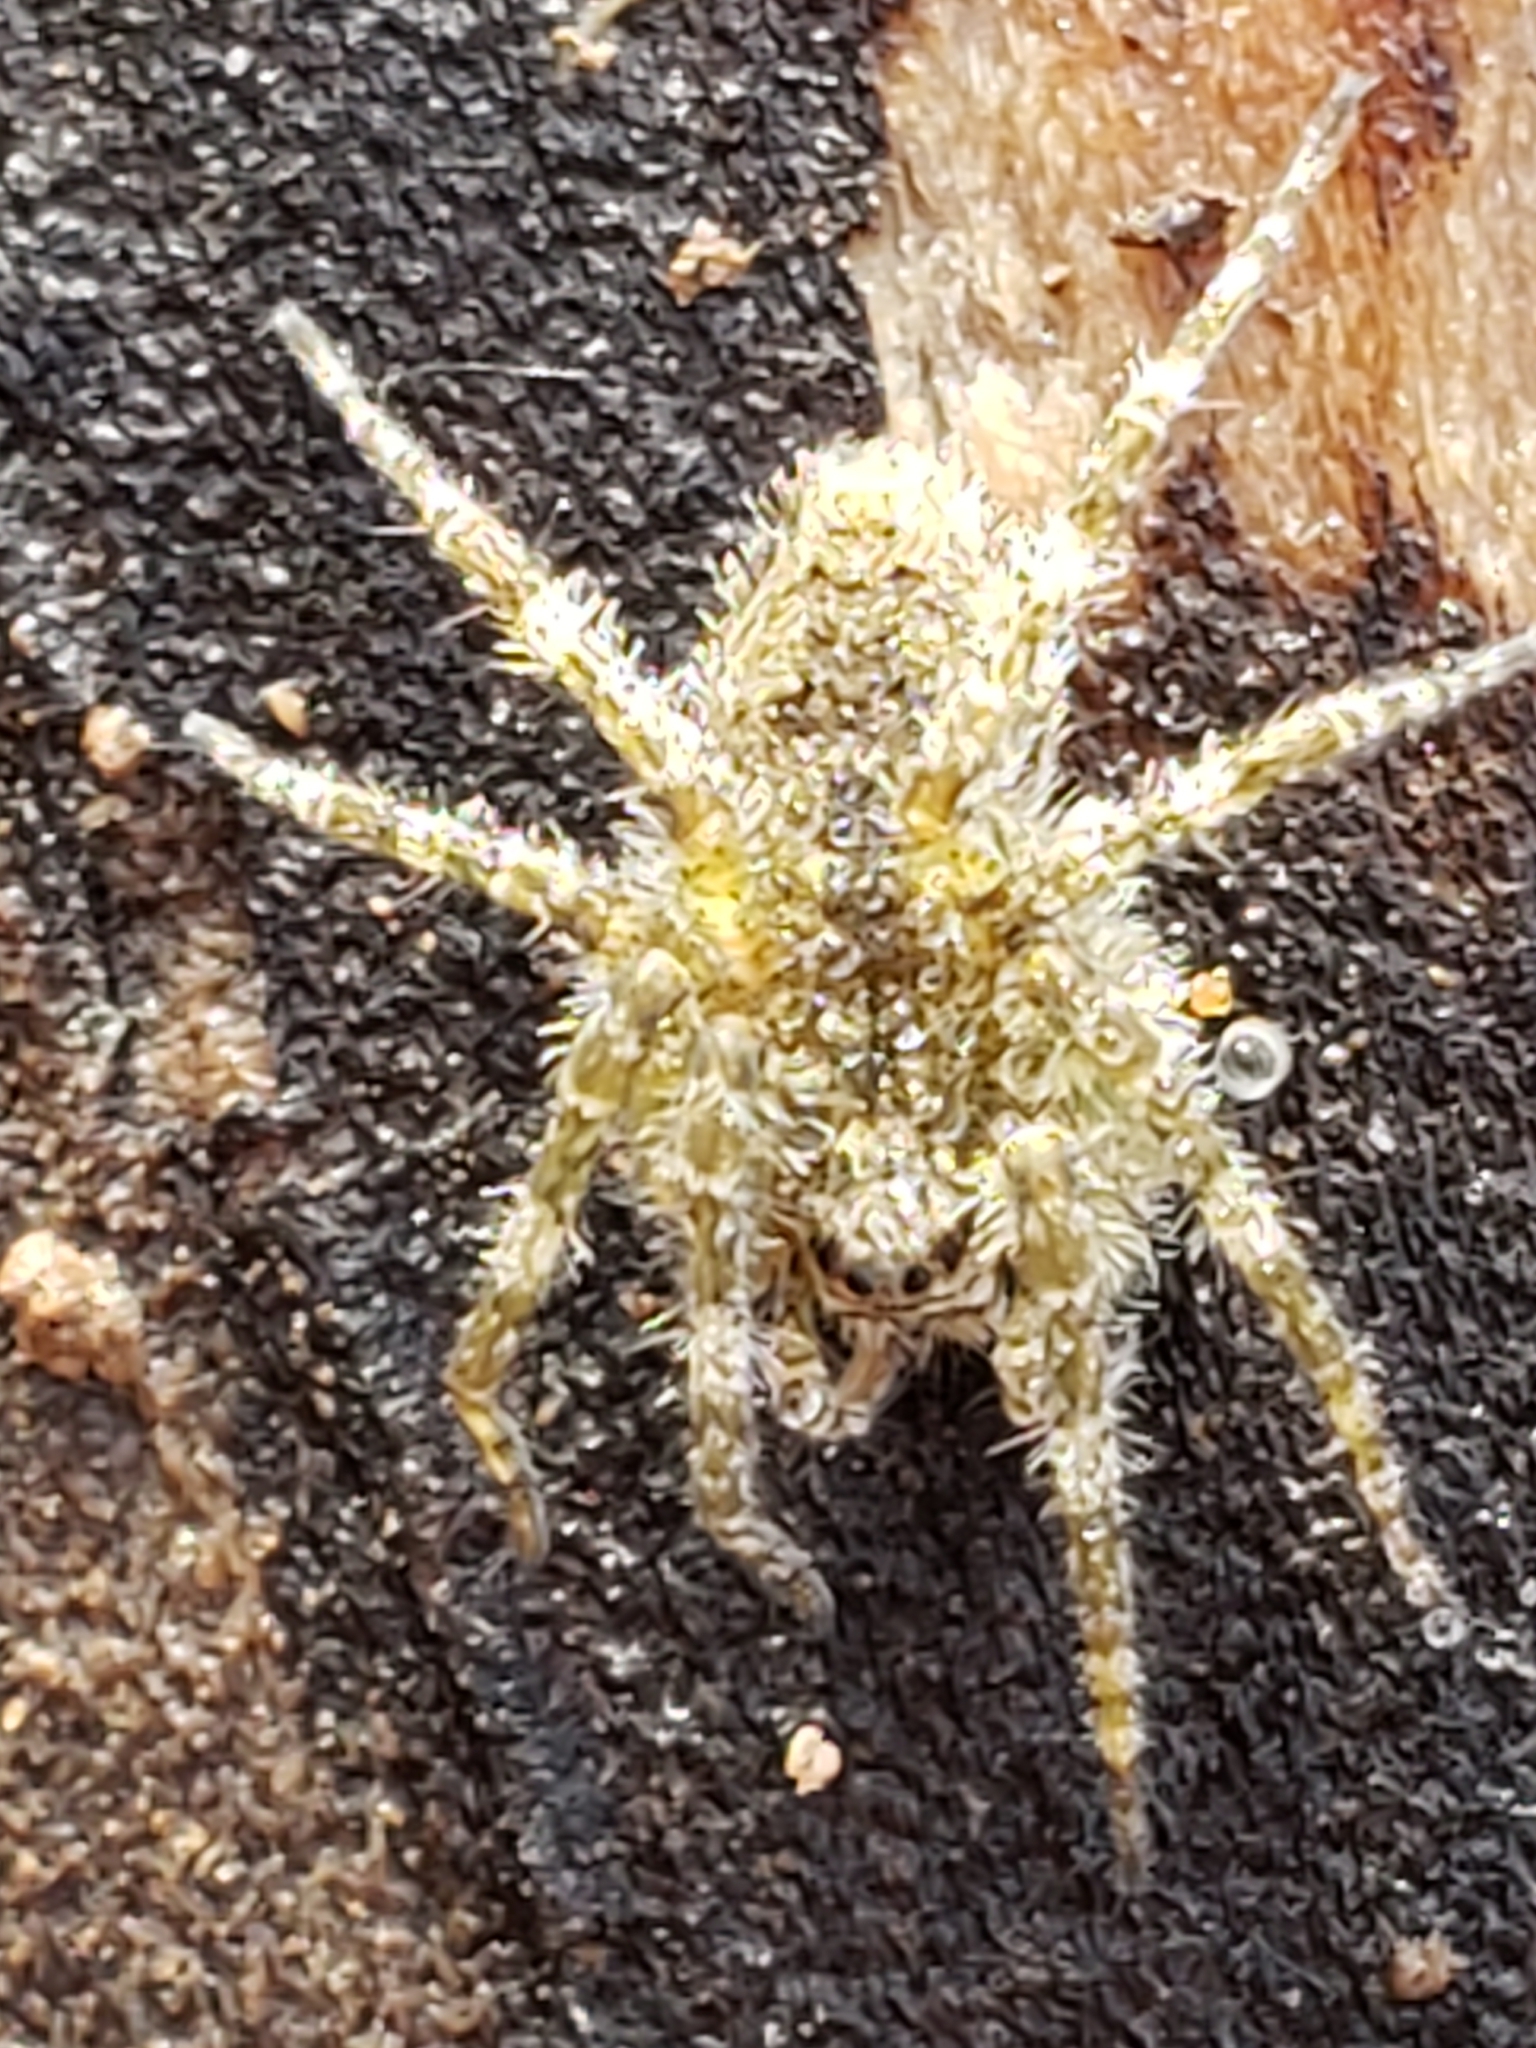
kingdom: Animalia
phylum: Arthropoda
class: Arachnida
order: Araneae
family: Pisauridae
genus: Dolomedes
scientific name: Dolomedes albineus
